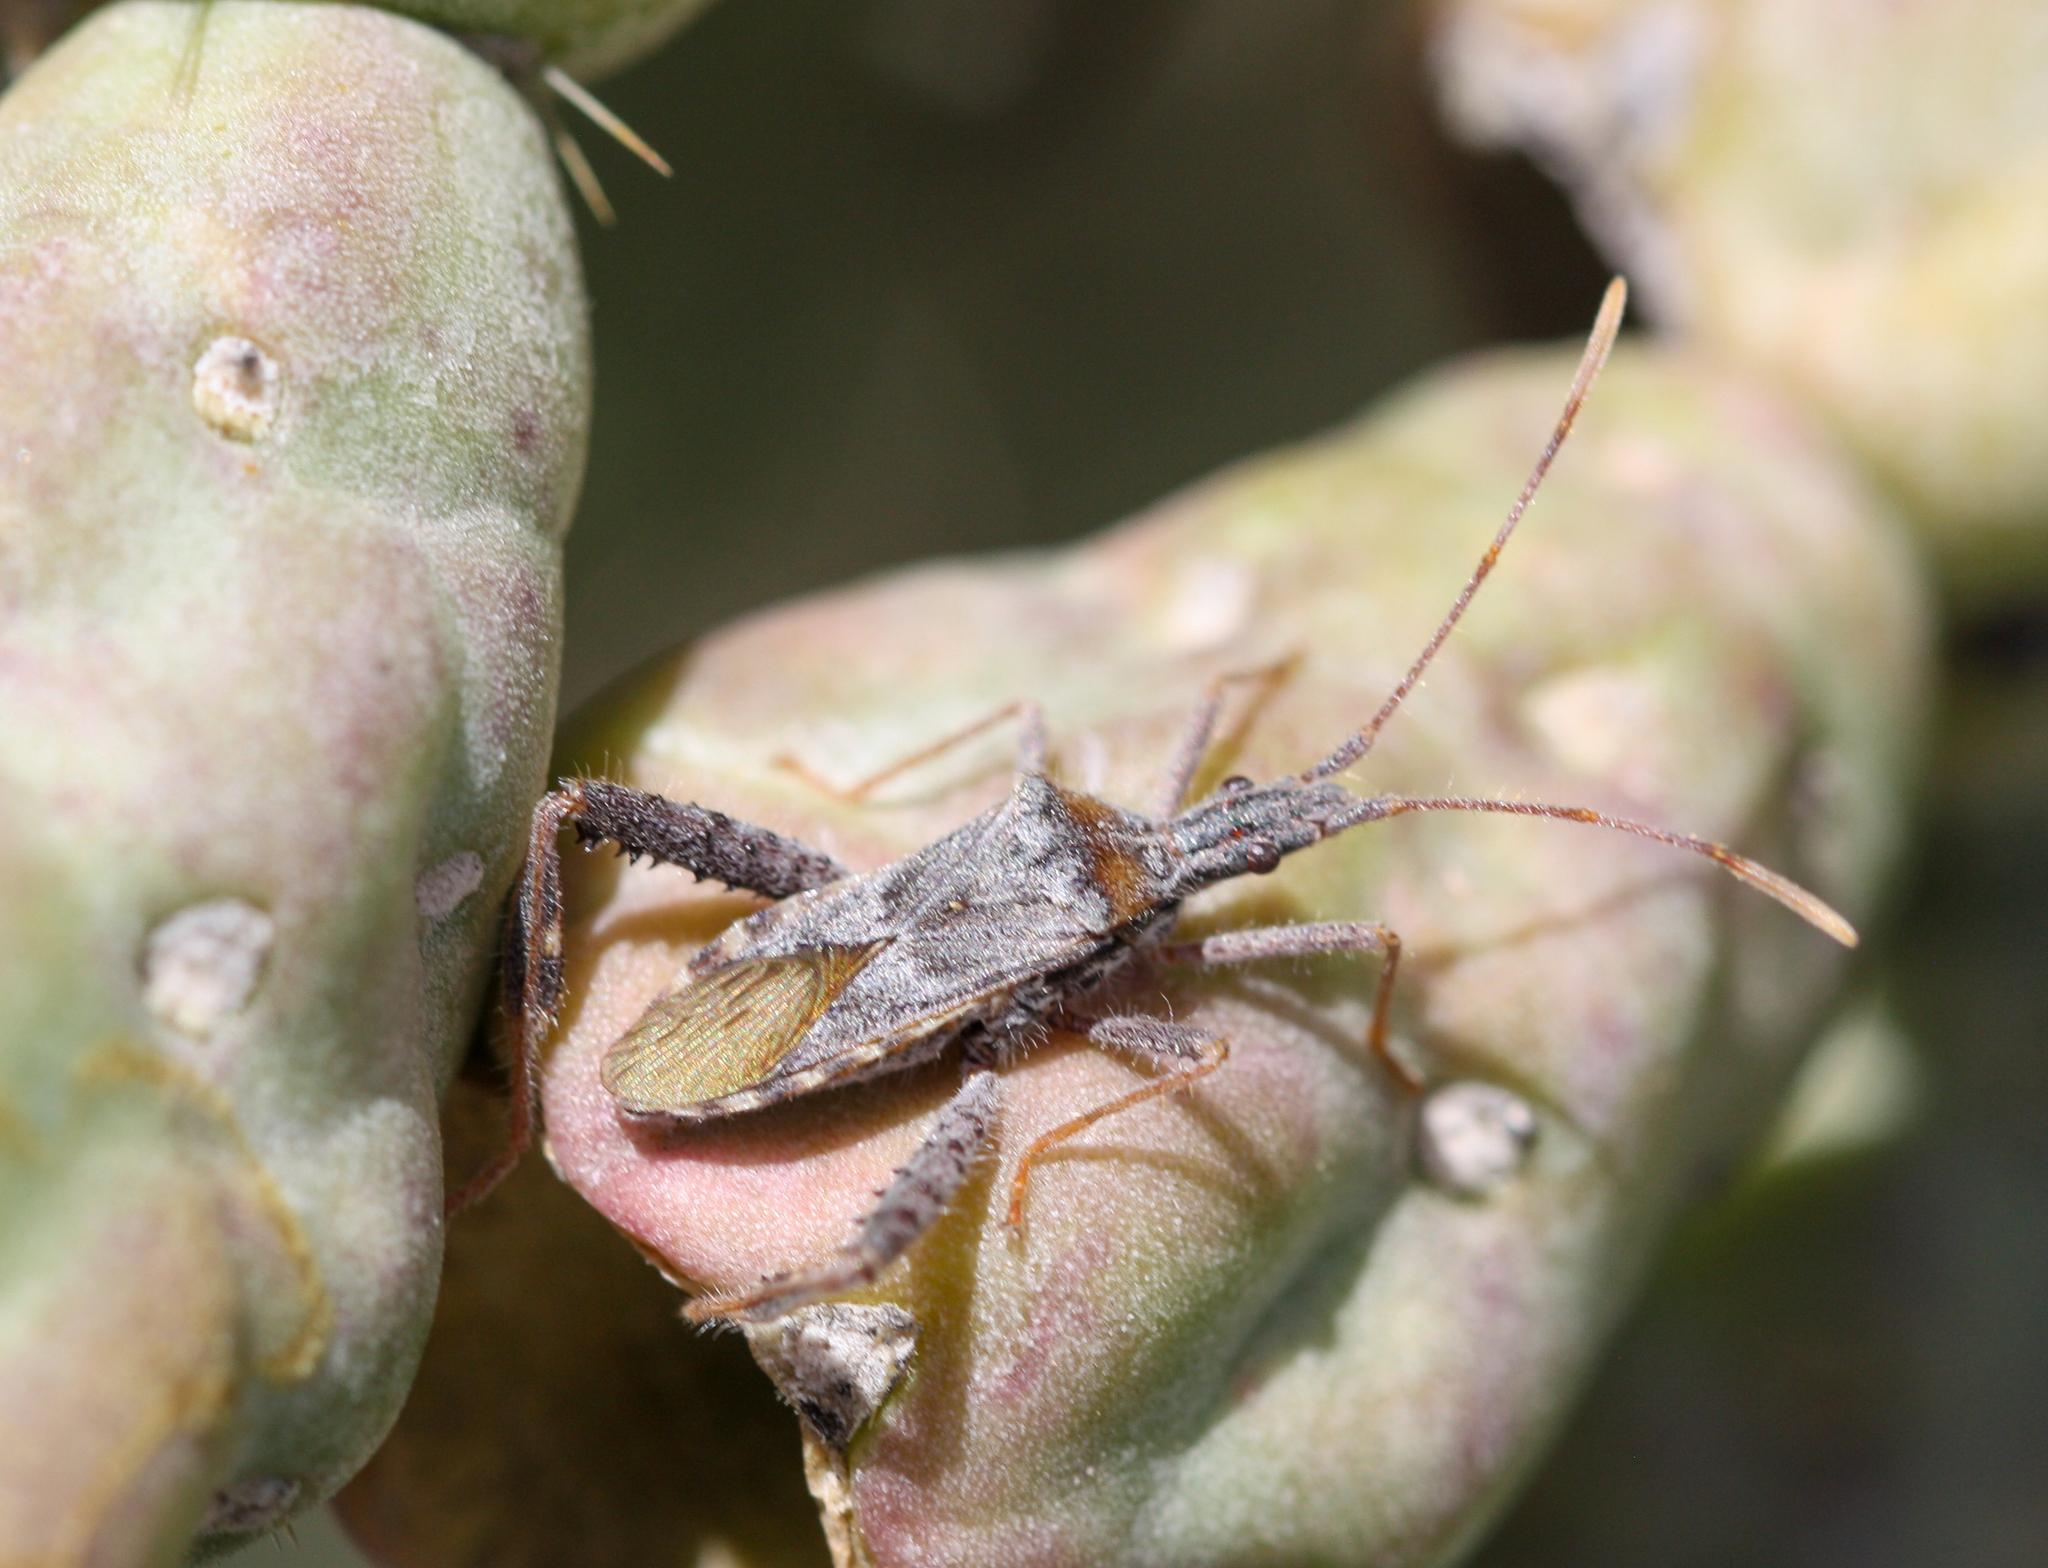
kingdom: Animalia
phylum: Arthropoda
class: Insecta
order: Hemiptera
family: Coreidae
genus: Narnia
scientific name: Narnia femorata
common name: Leaf-footed cactus bug
